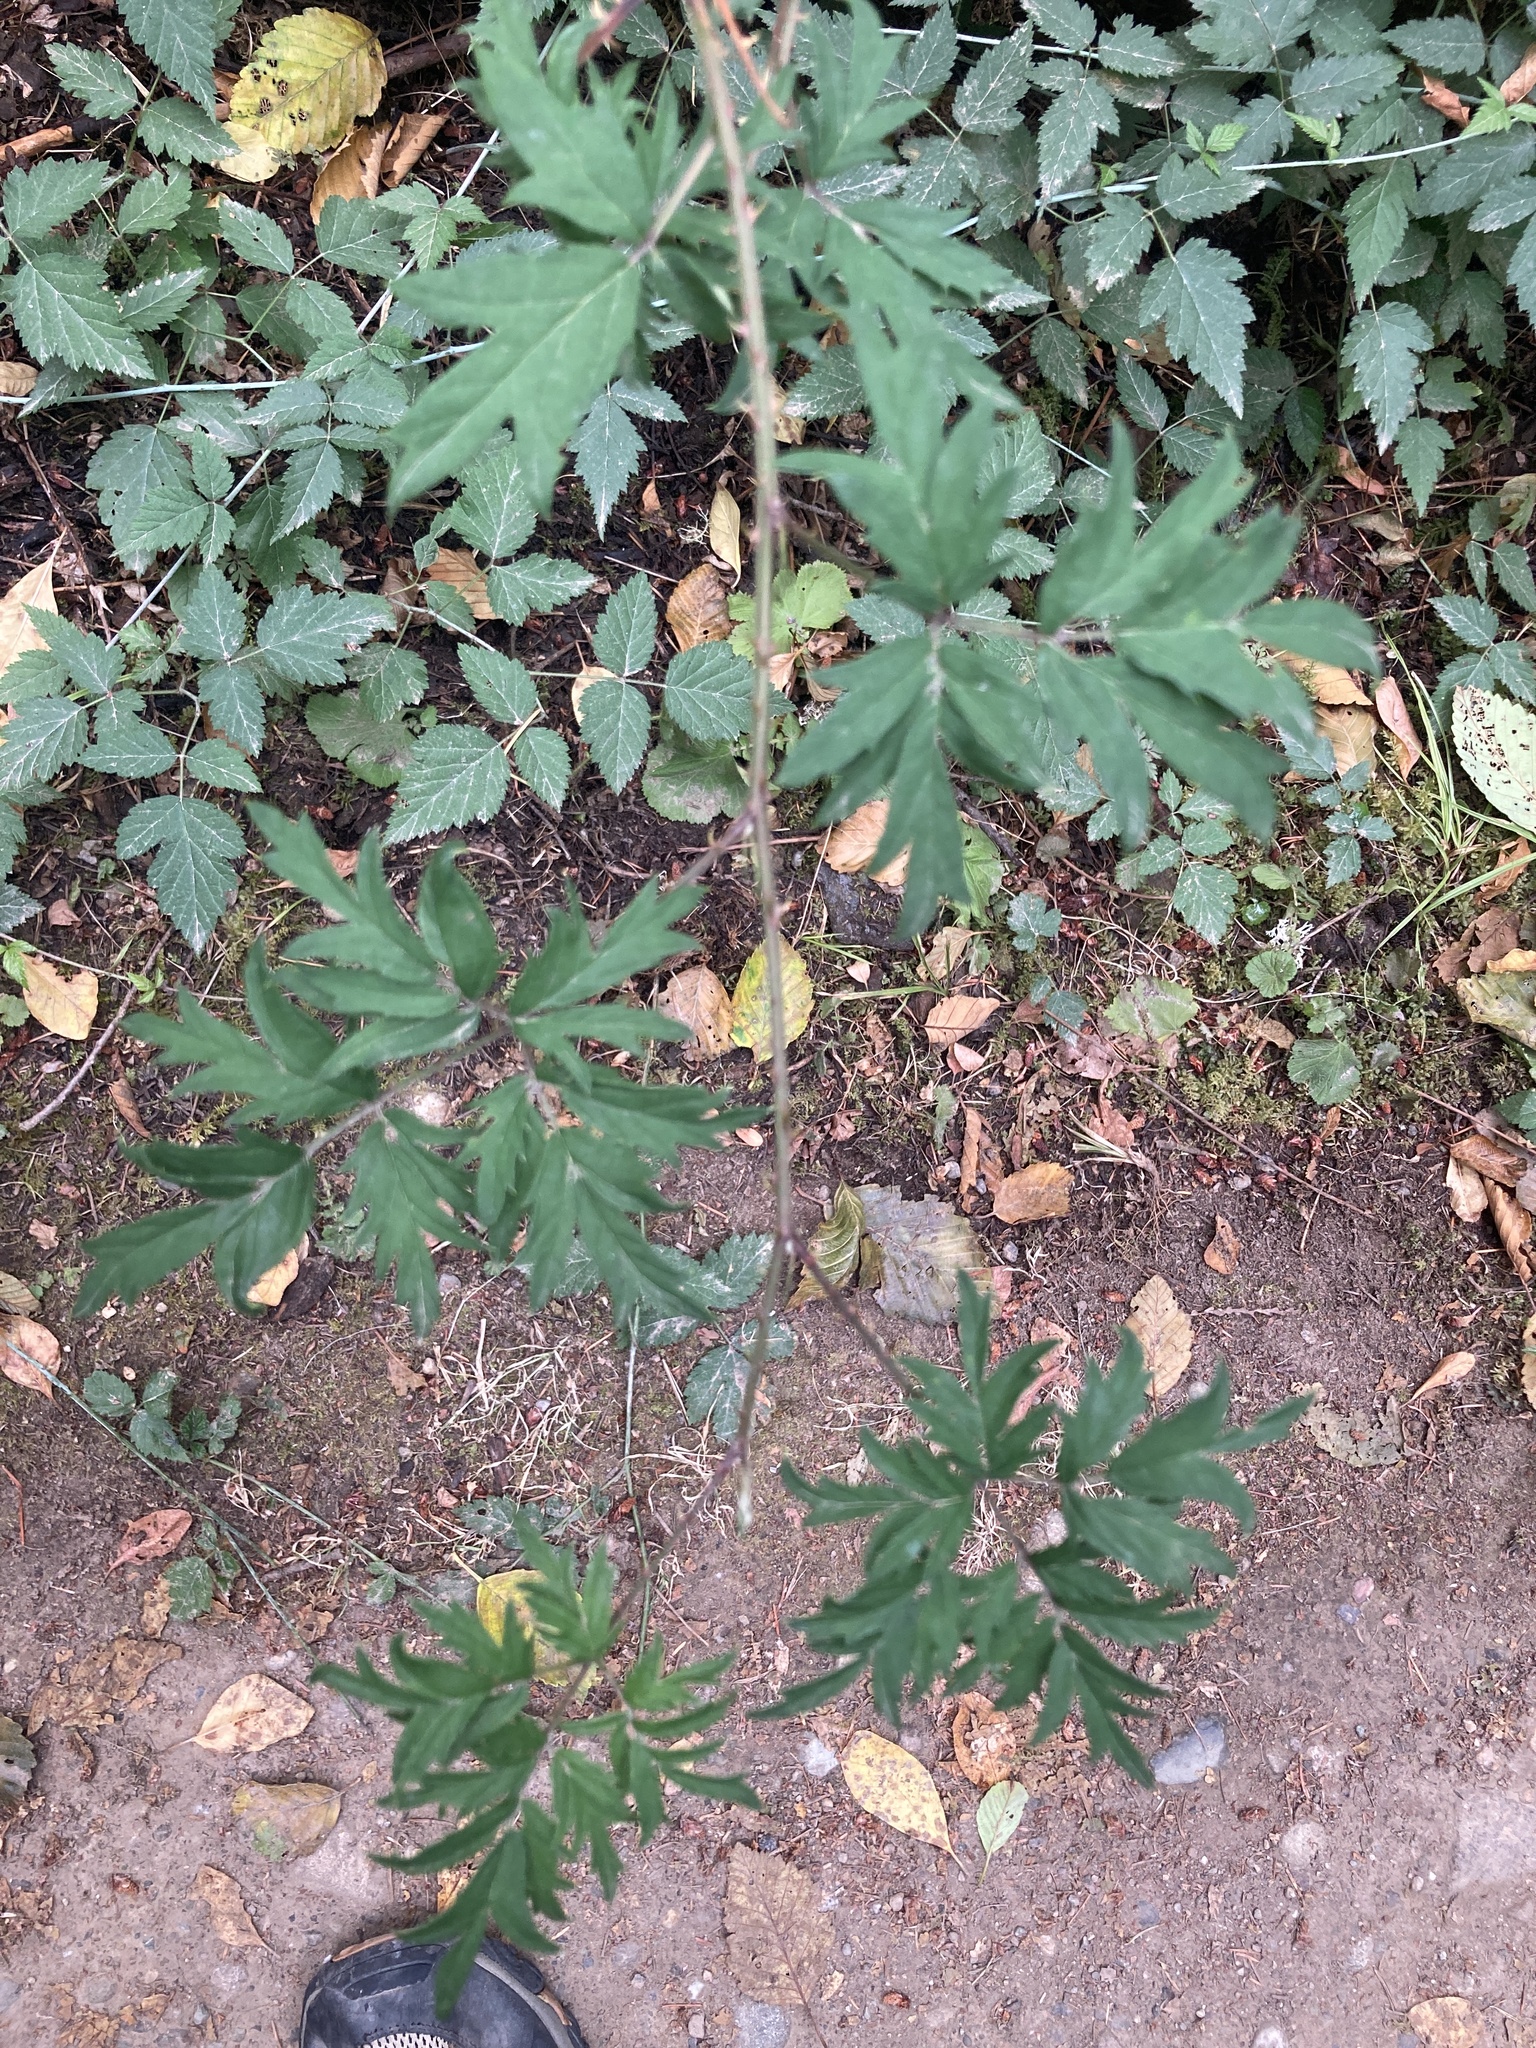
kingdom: Plantae
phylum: Tracheophyta
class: Magnoliopsida
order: Rosales
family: Rosaceae
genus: Rubus
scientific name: Rubus laciniatus
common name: Evergreen blackberry
